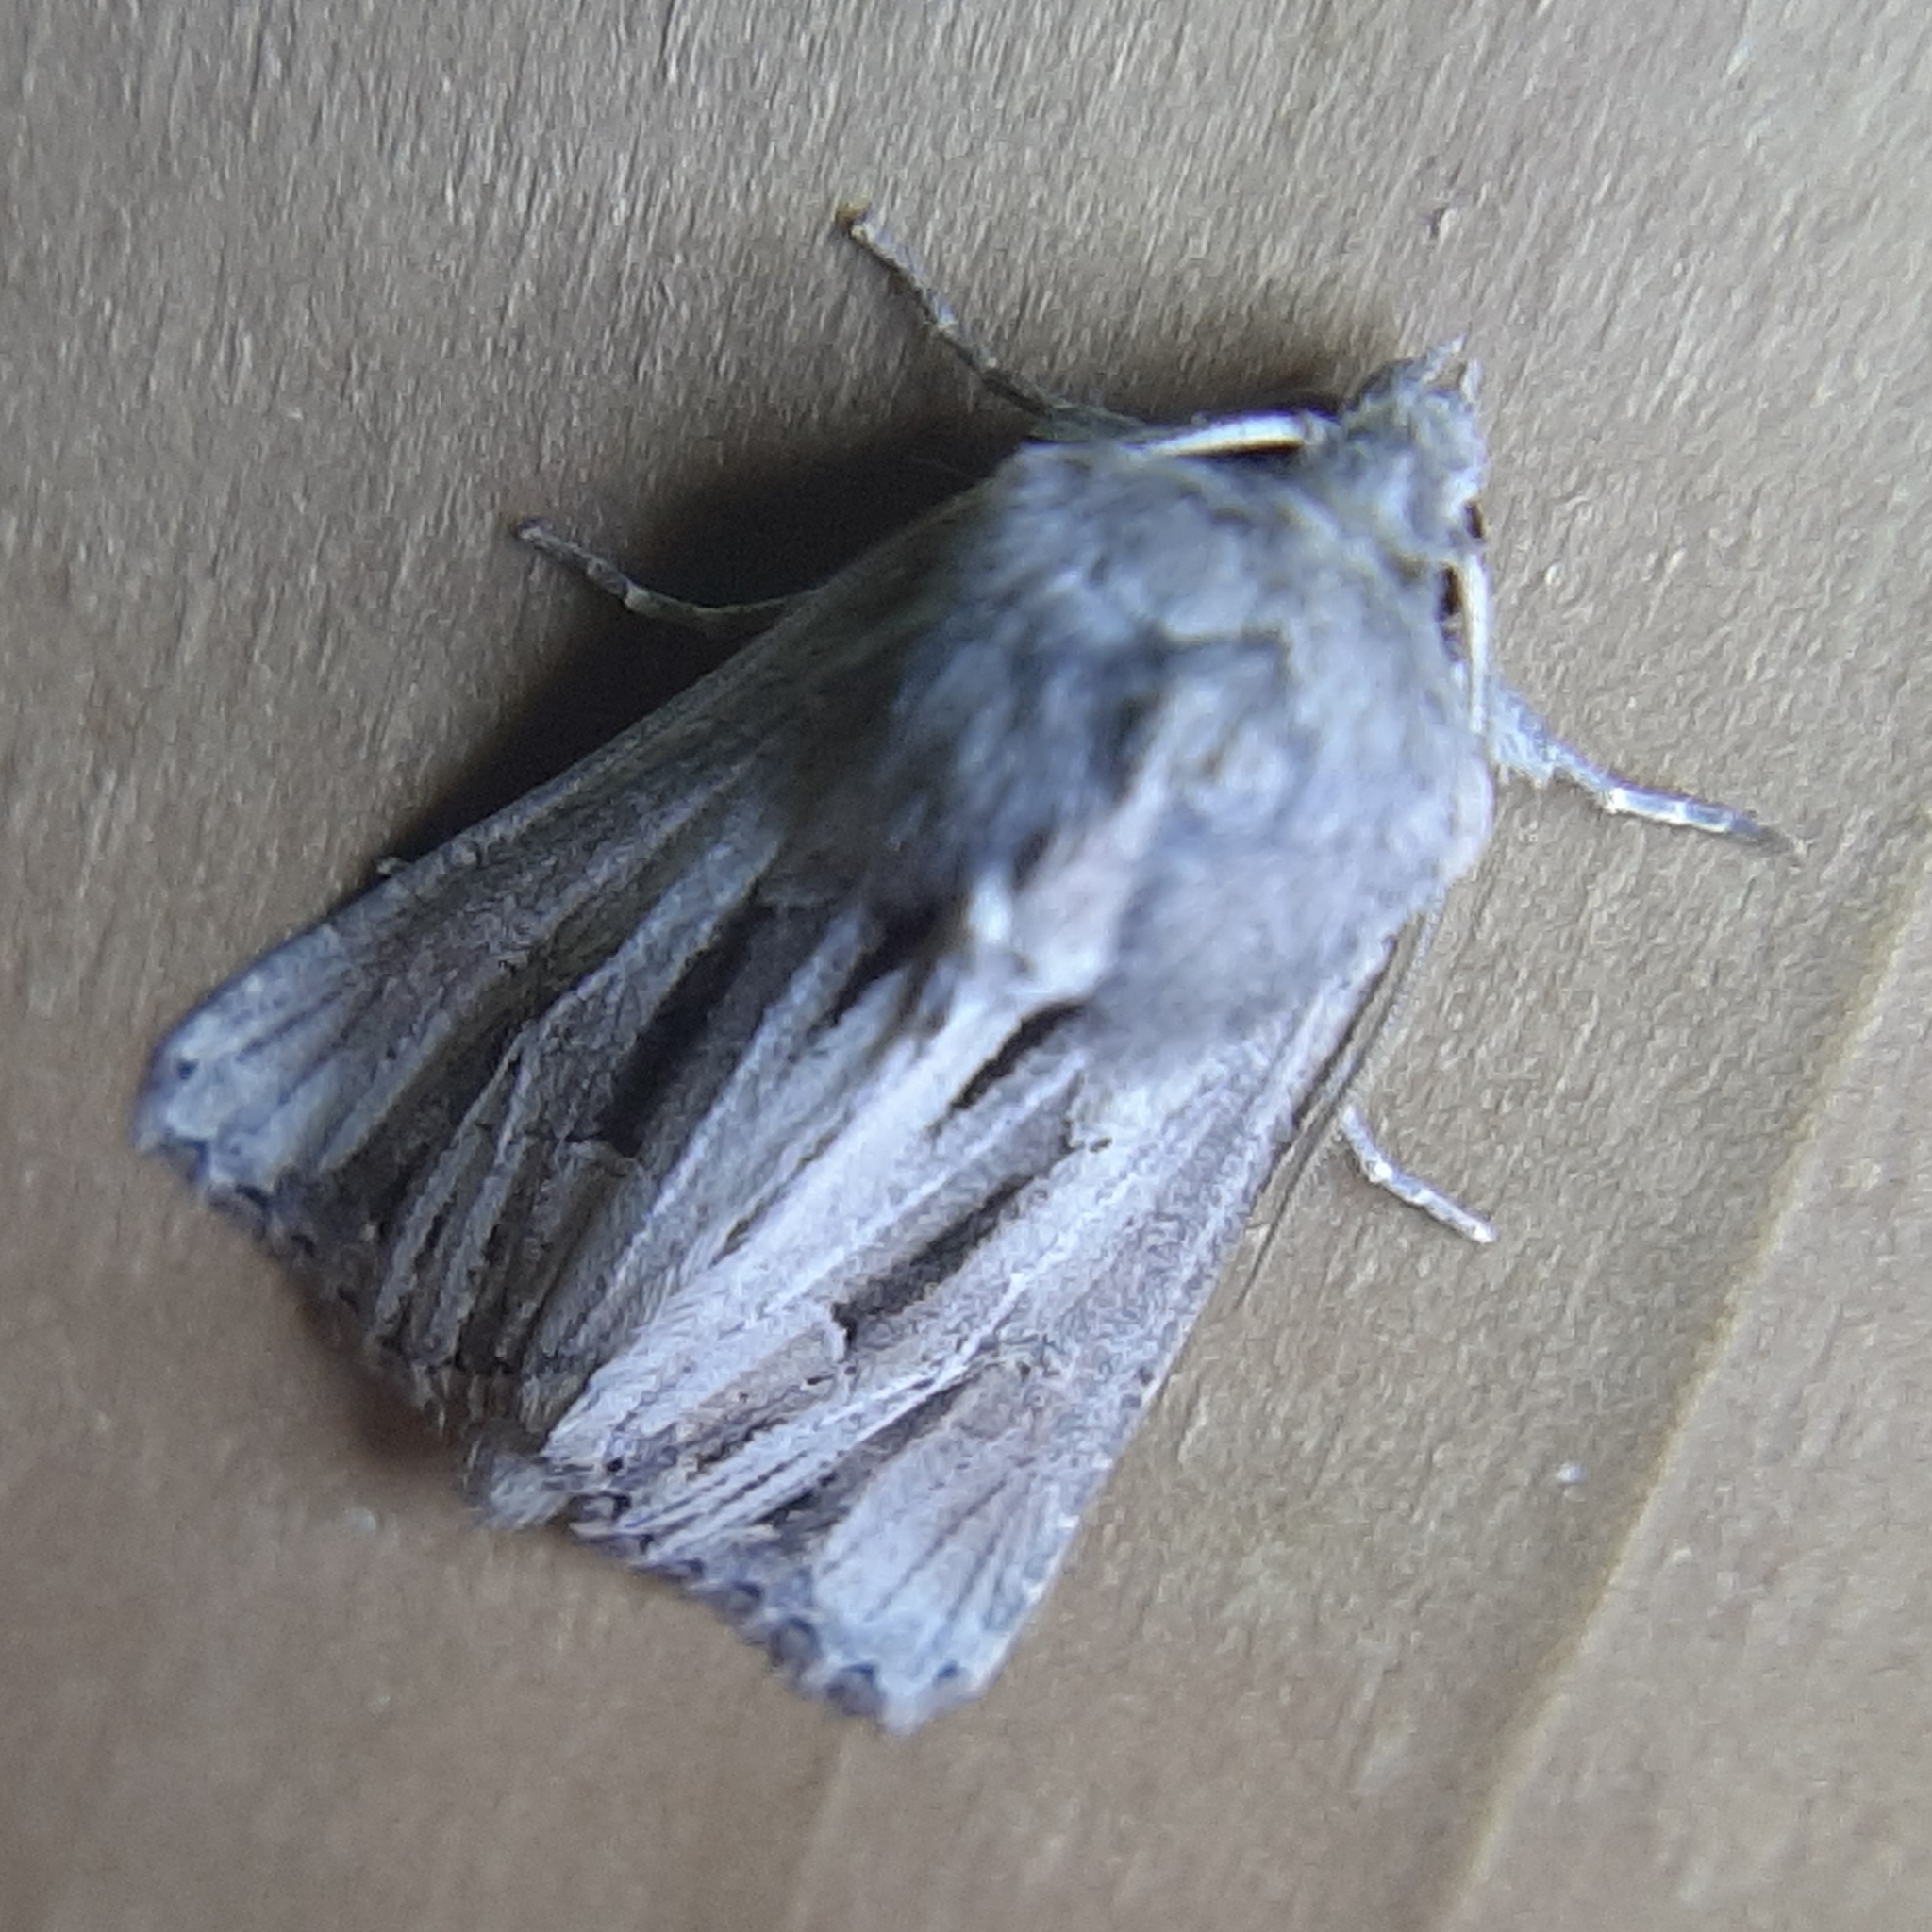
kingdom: Animalia
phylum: Arthropoda
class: Insecta
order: Lepidoptera
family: Noctuidae
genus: Resapamea
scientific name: Resapamea stipata
